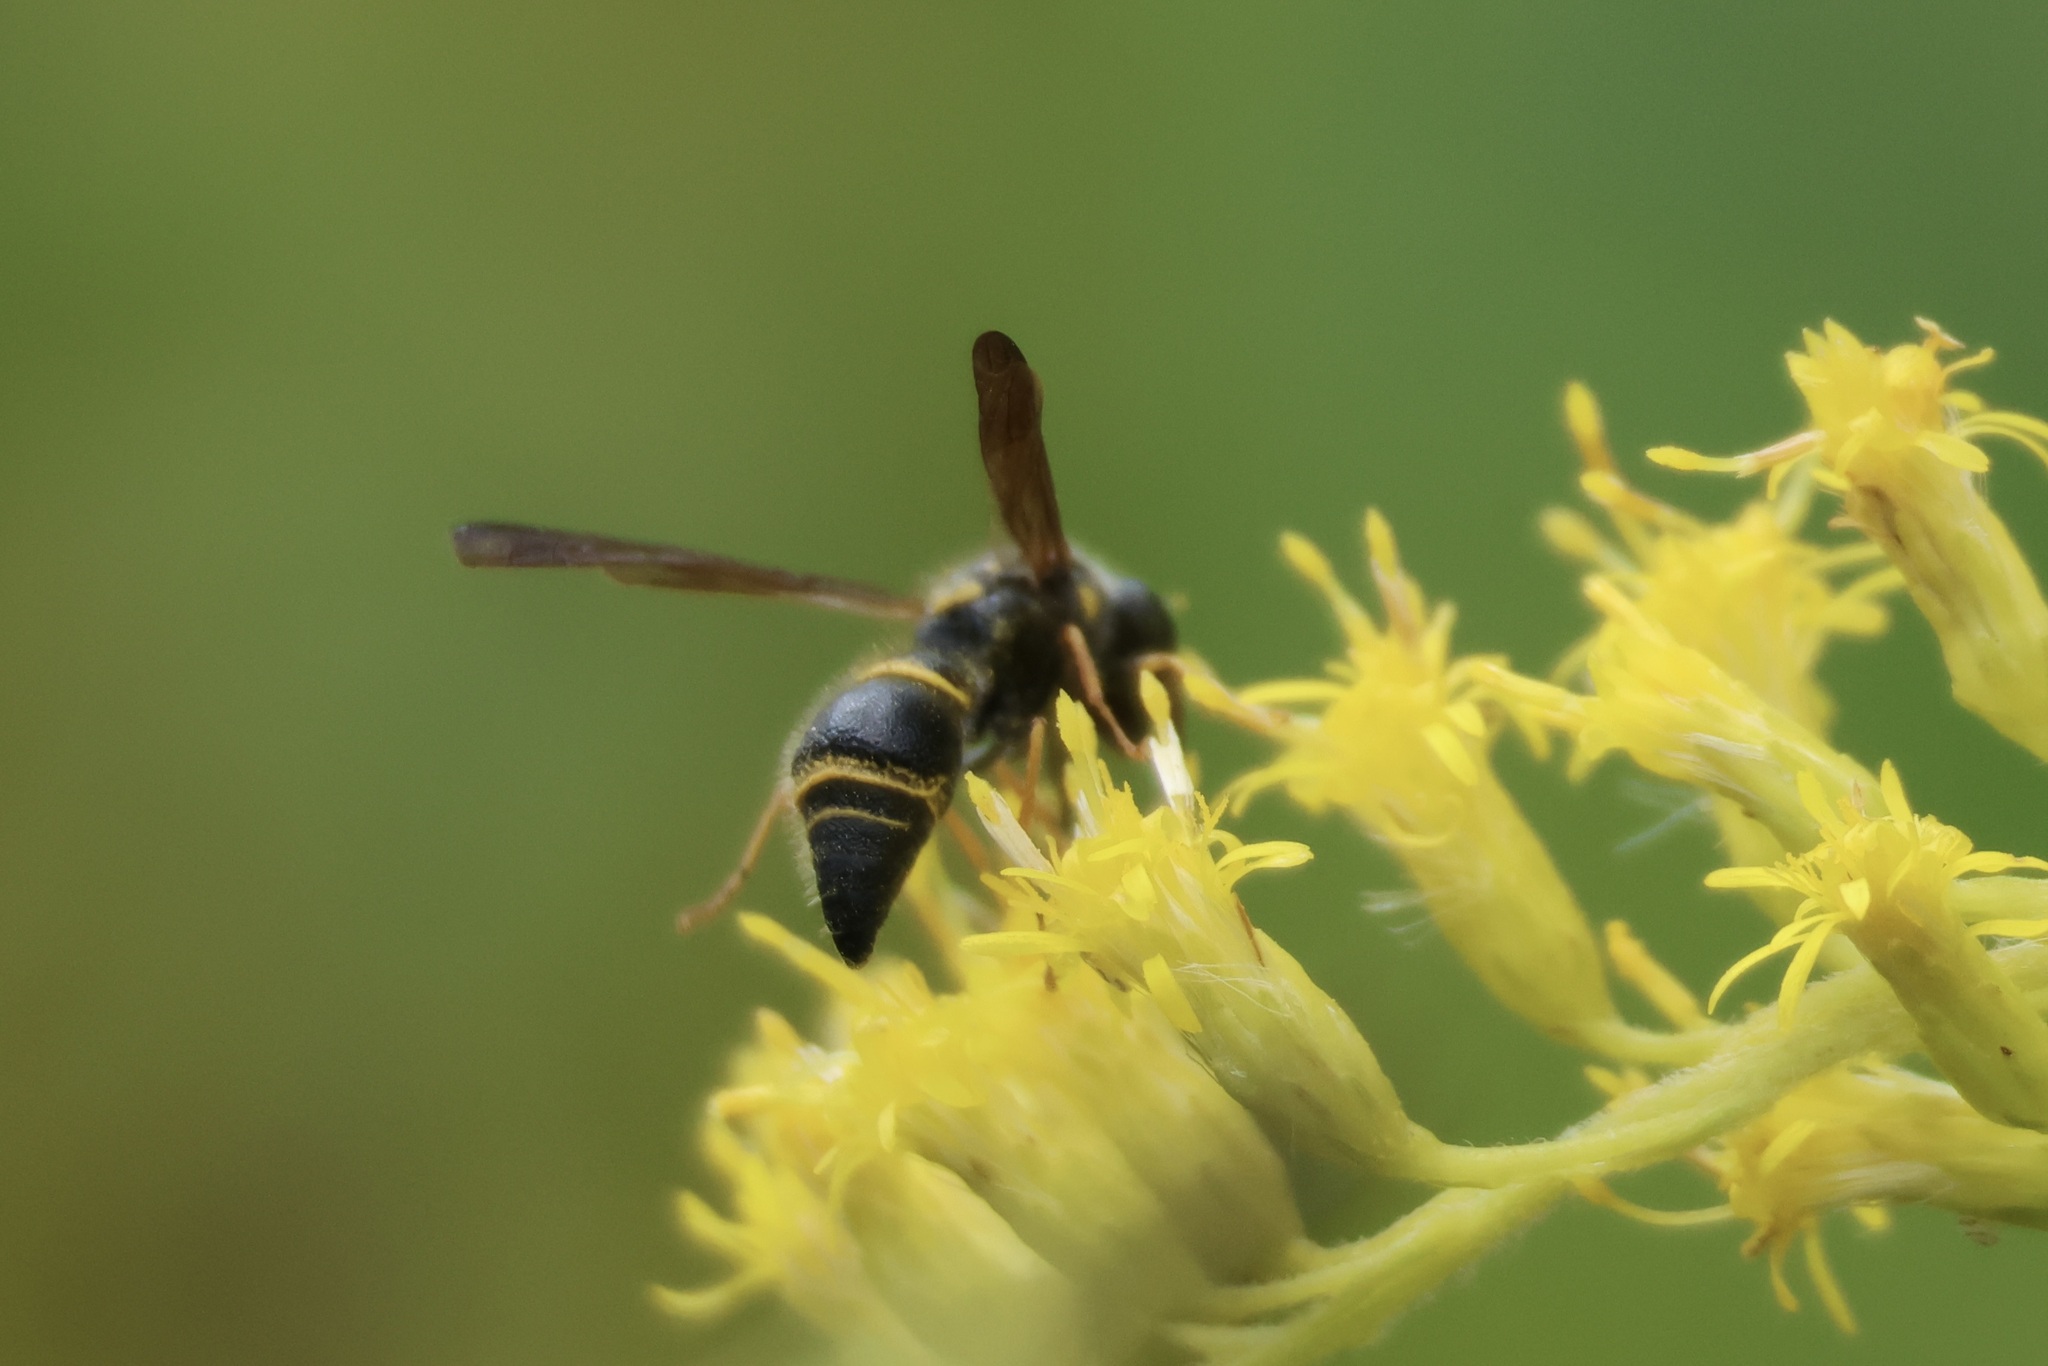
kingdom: Animalia
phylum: Arthropoda
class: Insecta
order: Hymenoptera
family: Vespidae
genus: Ancistrocerus
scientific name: Ancistrocerus campestris
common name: Smiling mason wasp
